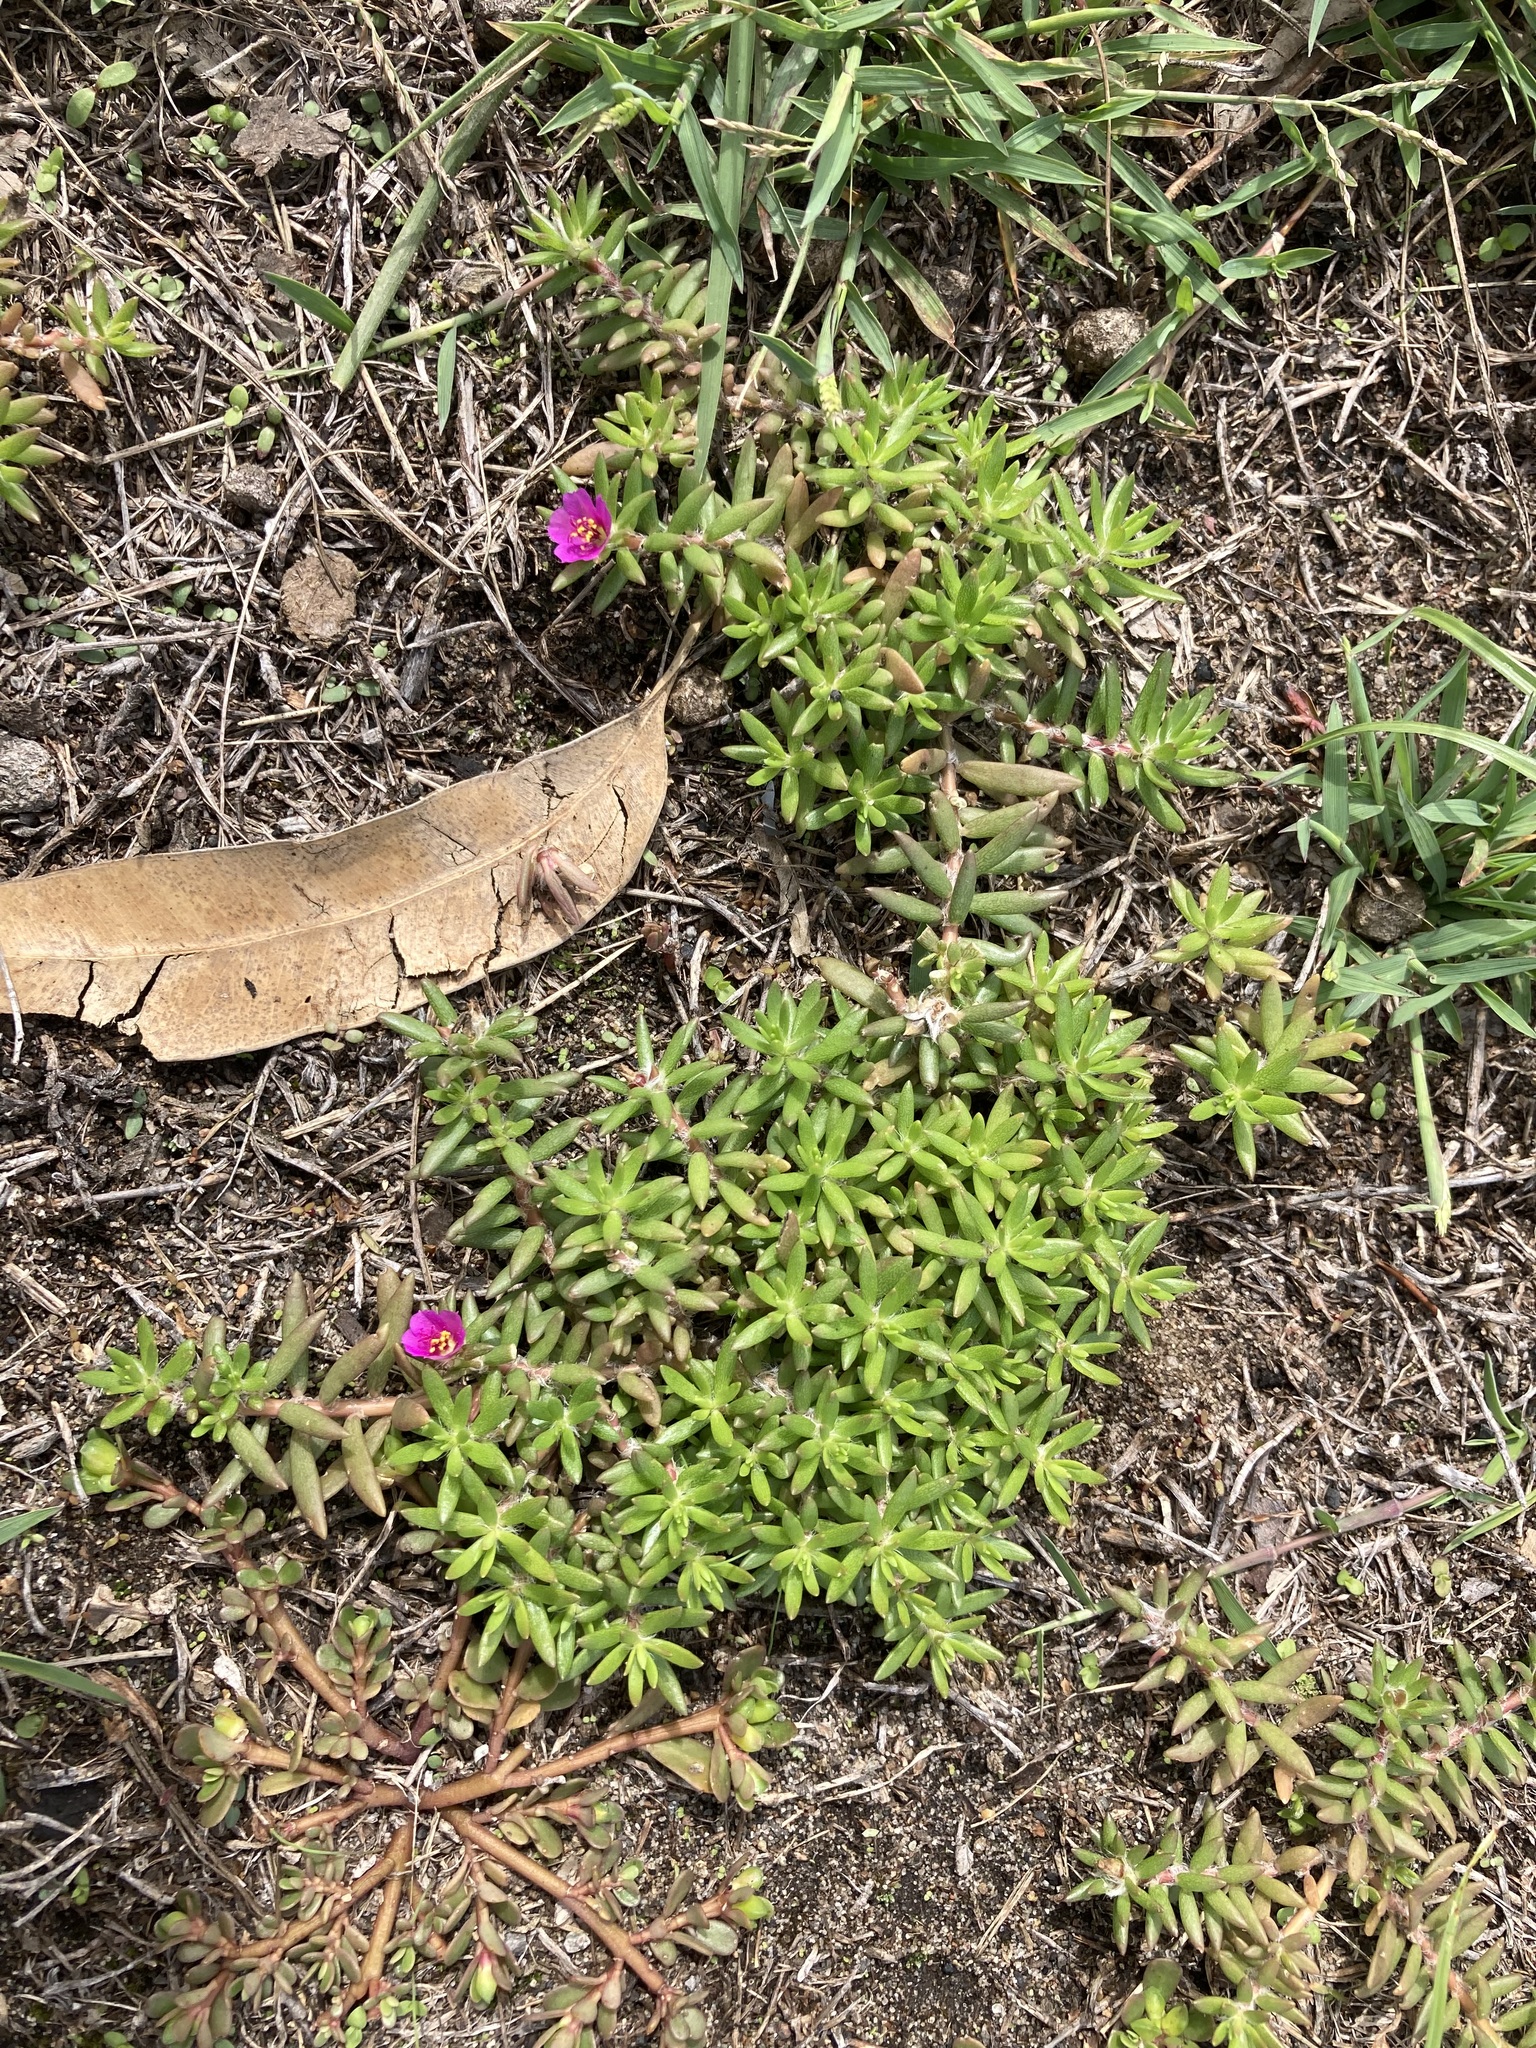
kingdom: Plantae
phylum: Tracheophyta
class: Magnoliopsida
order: Caryophyllales
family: Portulacaceae
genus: Portulaca
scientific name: Portulaca pilosa
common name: Kiss me quick
